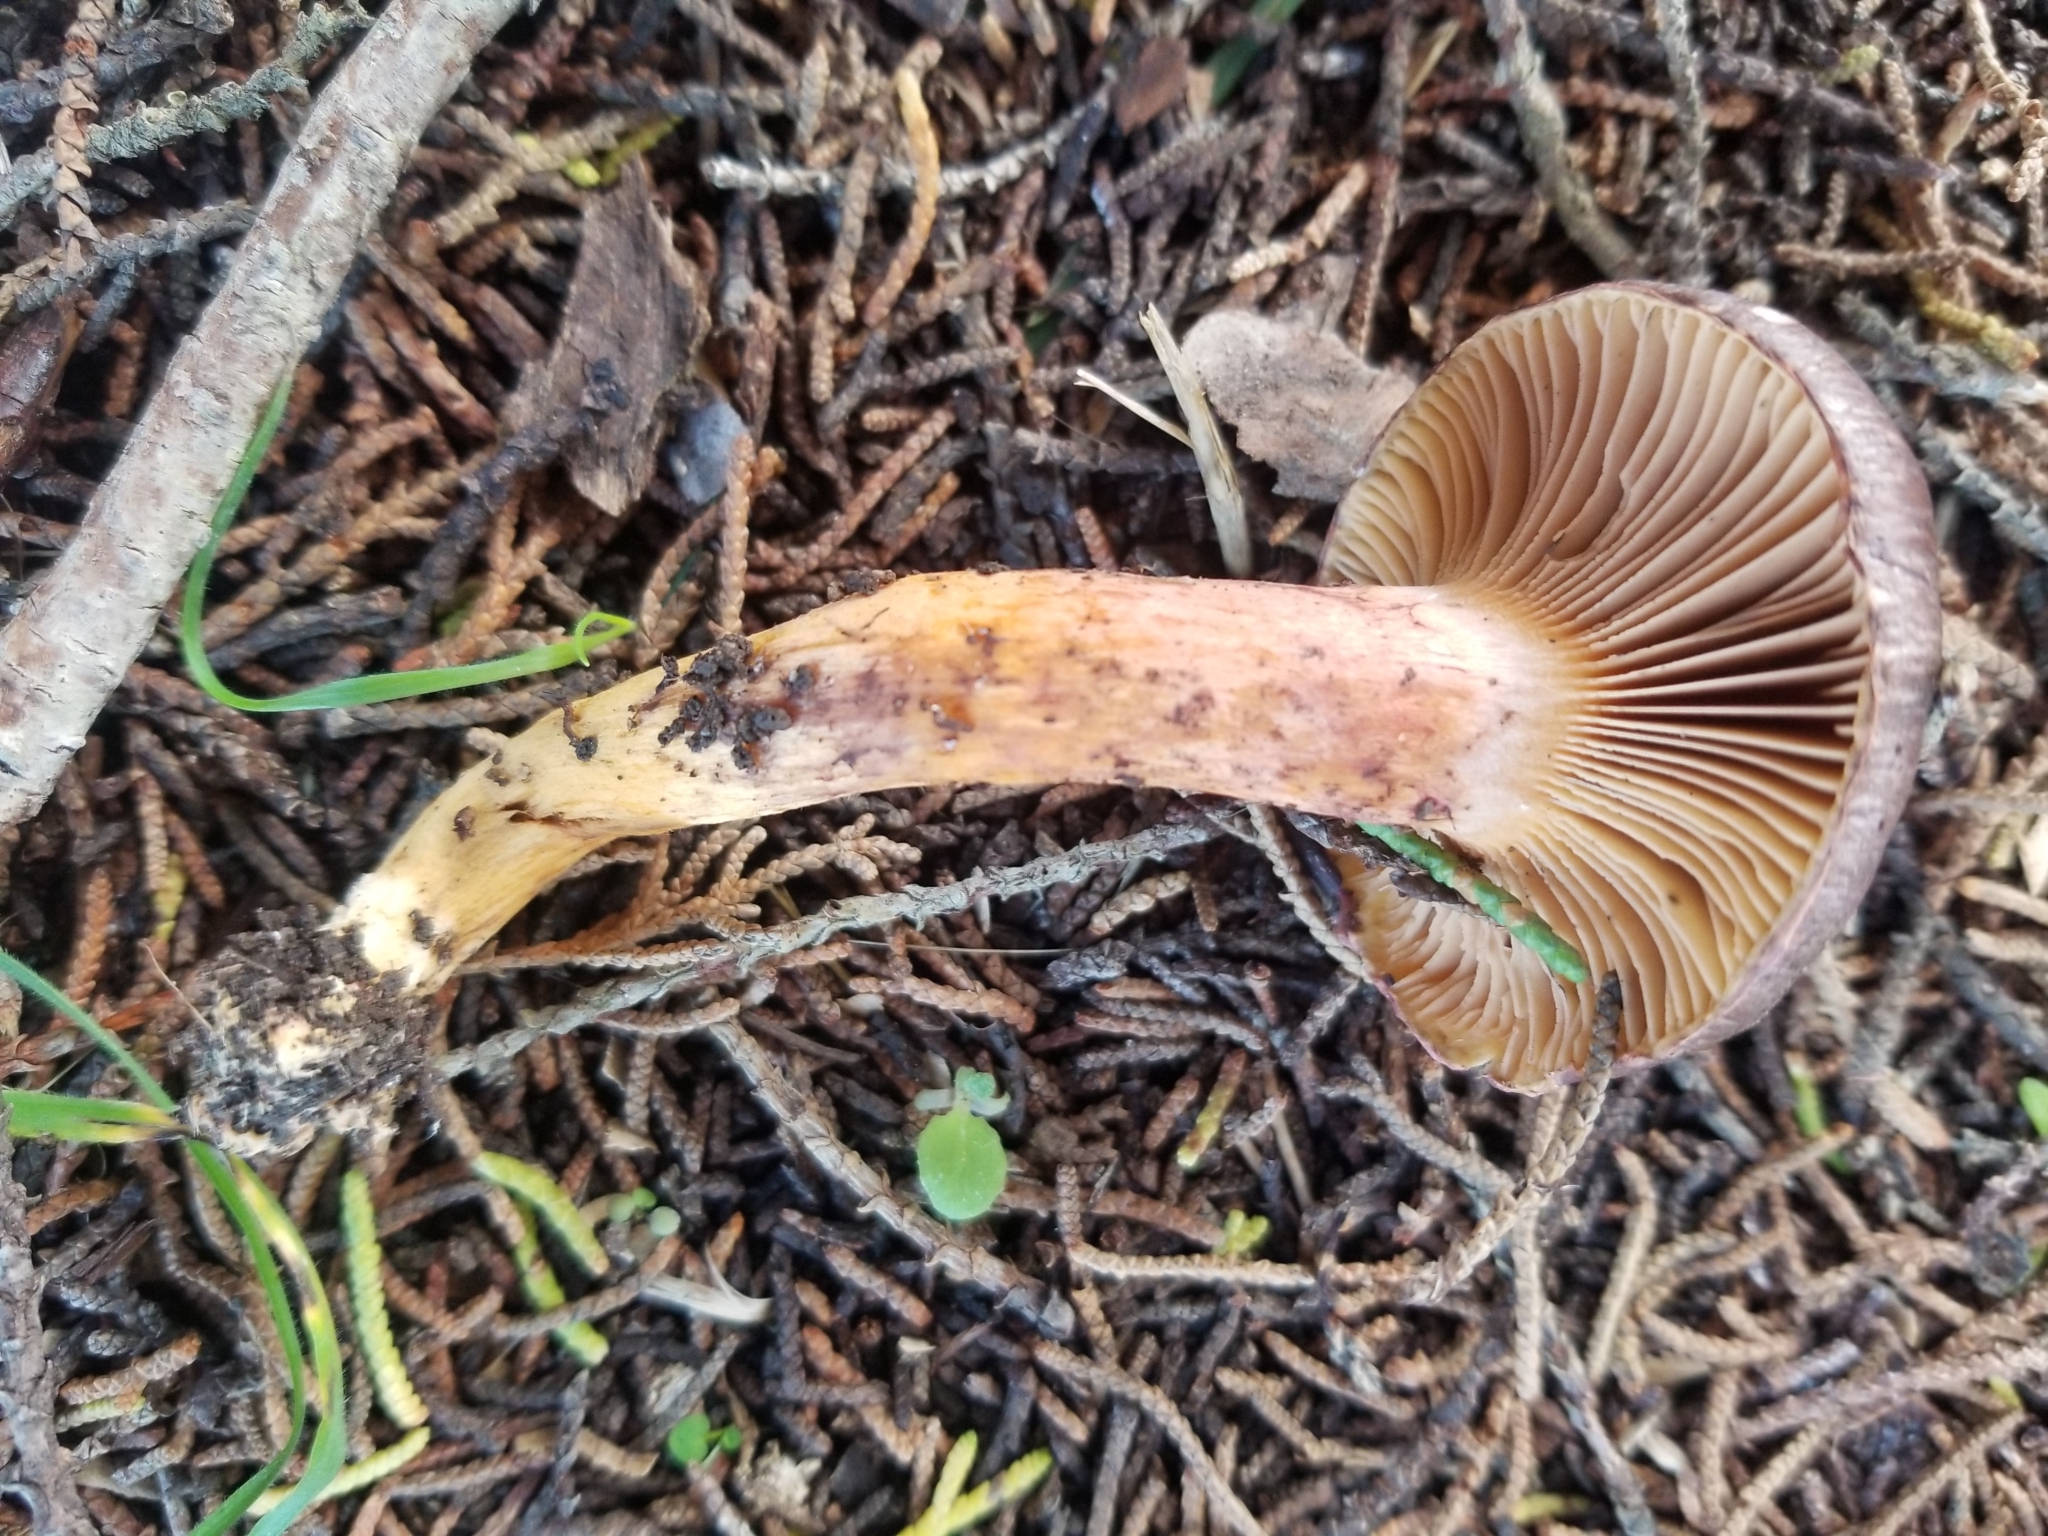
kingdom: Fungi
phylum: Basidiomycota
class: Agaricomycetes
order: Boletales
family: Gomphidiaceae
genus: Chroogomphus
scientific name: Chroogomphus vinicolor
